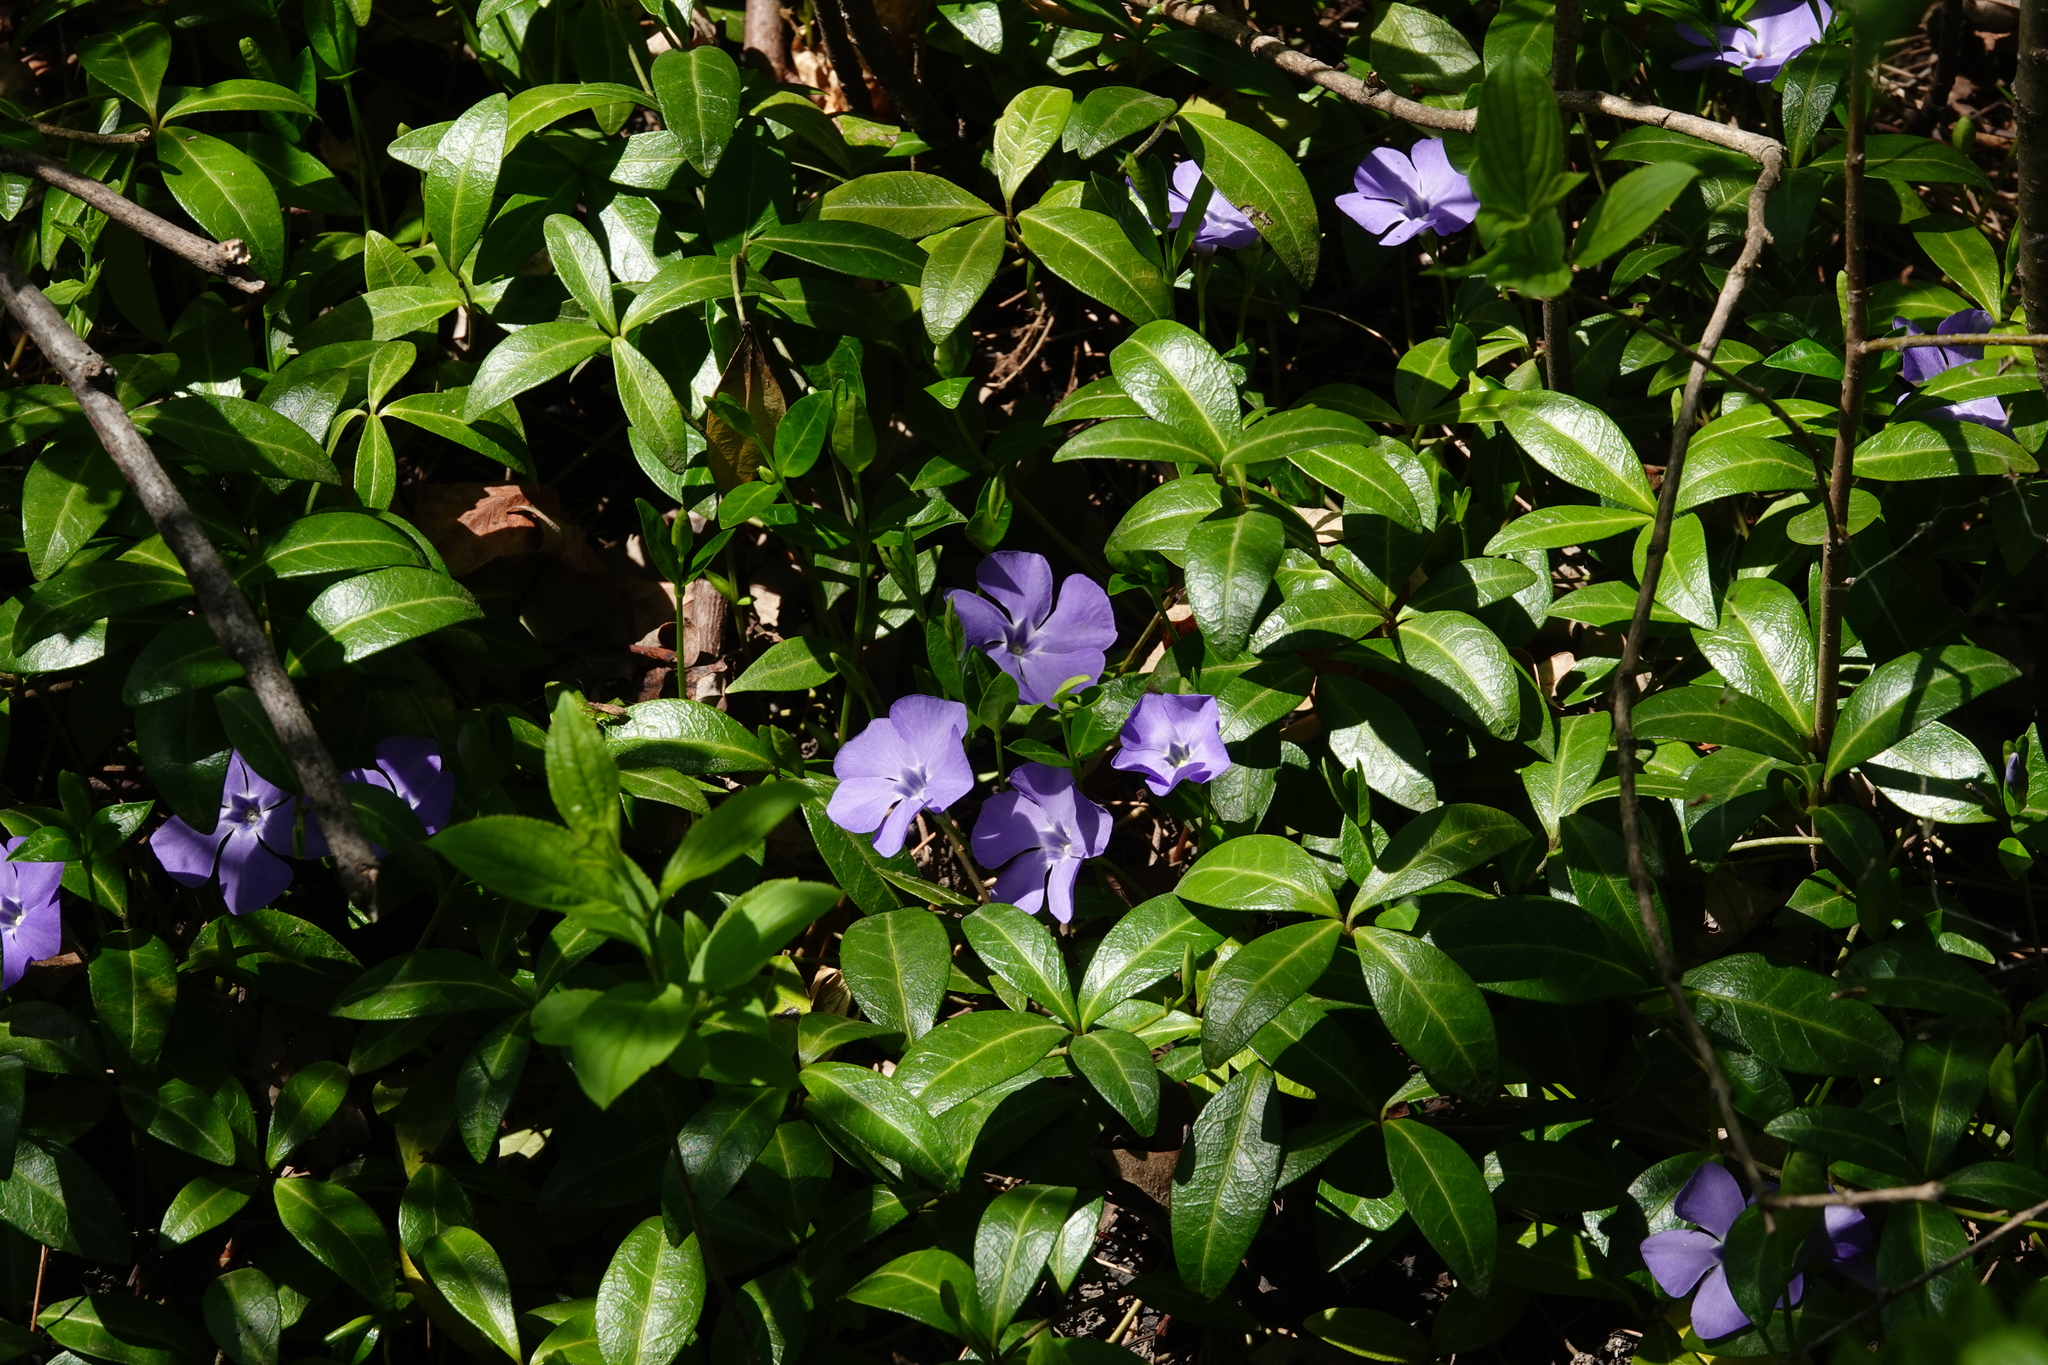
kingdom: Plantae
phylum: Tracheophyta
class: Magnoliopsida
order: Gentianales
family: Apocynaceae
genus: Vinca
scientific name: Vinca minor
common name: Lesser periwinkle
